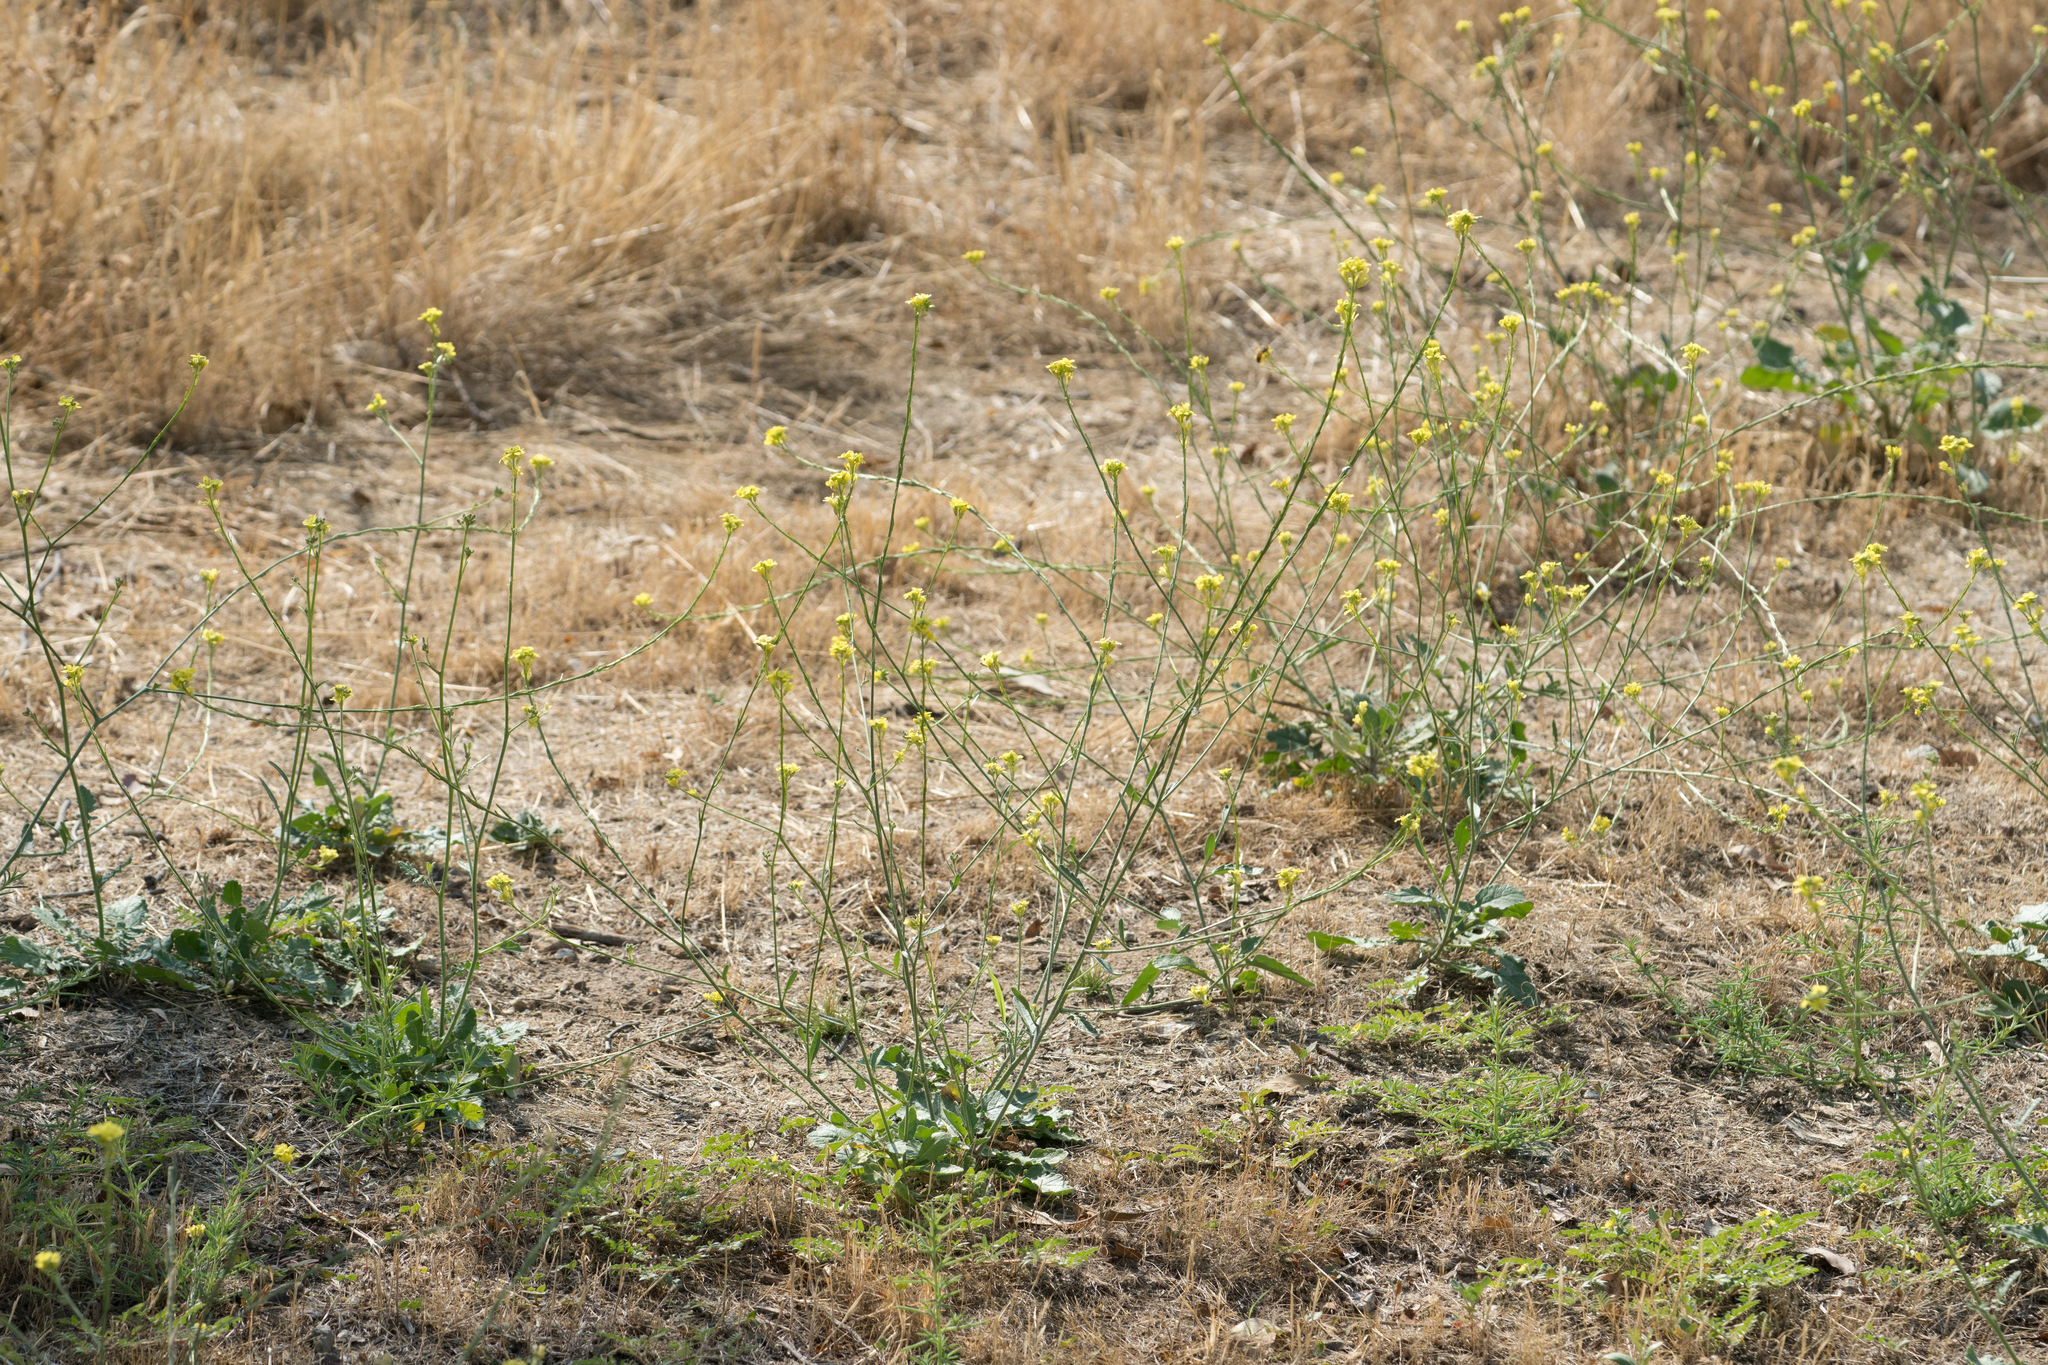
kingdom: Plantae
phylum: Tracheophyta
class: Magnoliopsida
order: Brassicales
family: Brassicaceae
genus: Hirschfeldia
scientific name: Hirschfeldia incana
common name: Hoary mustard
